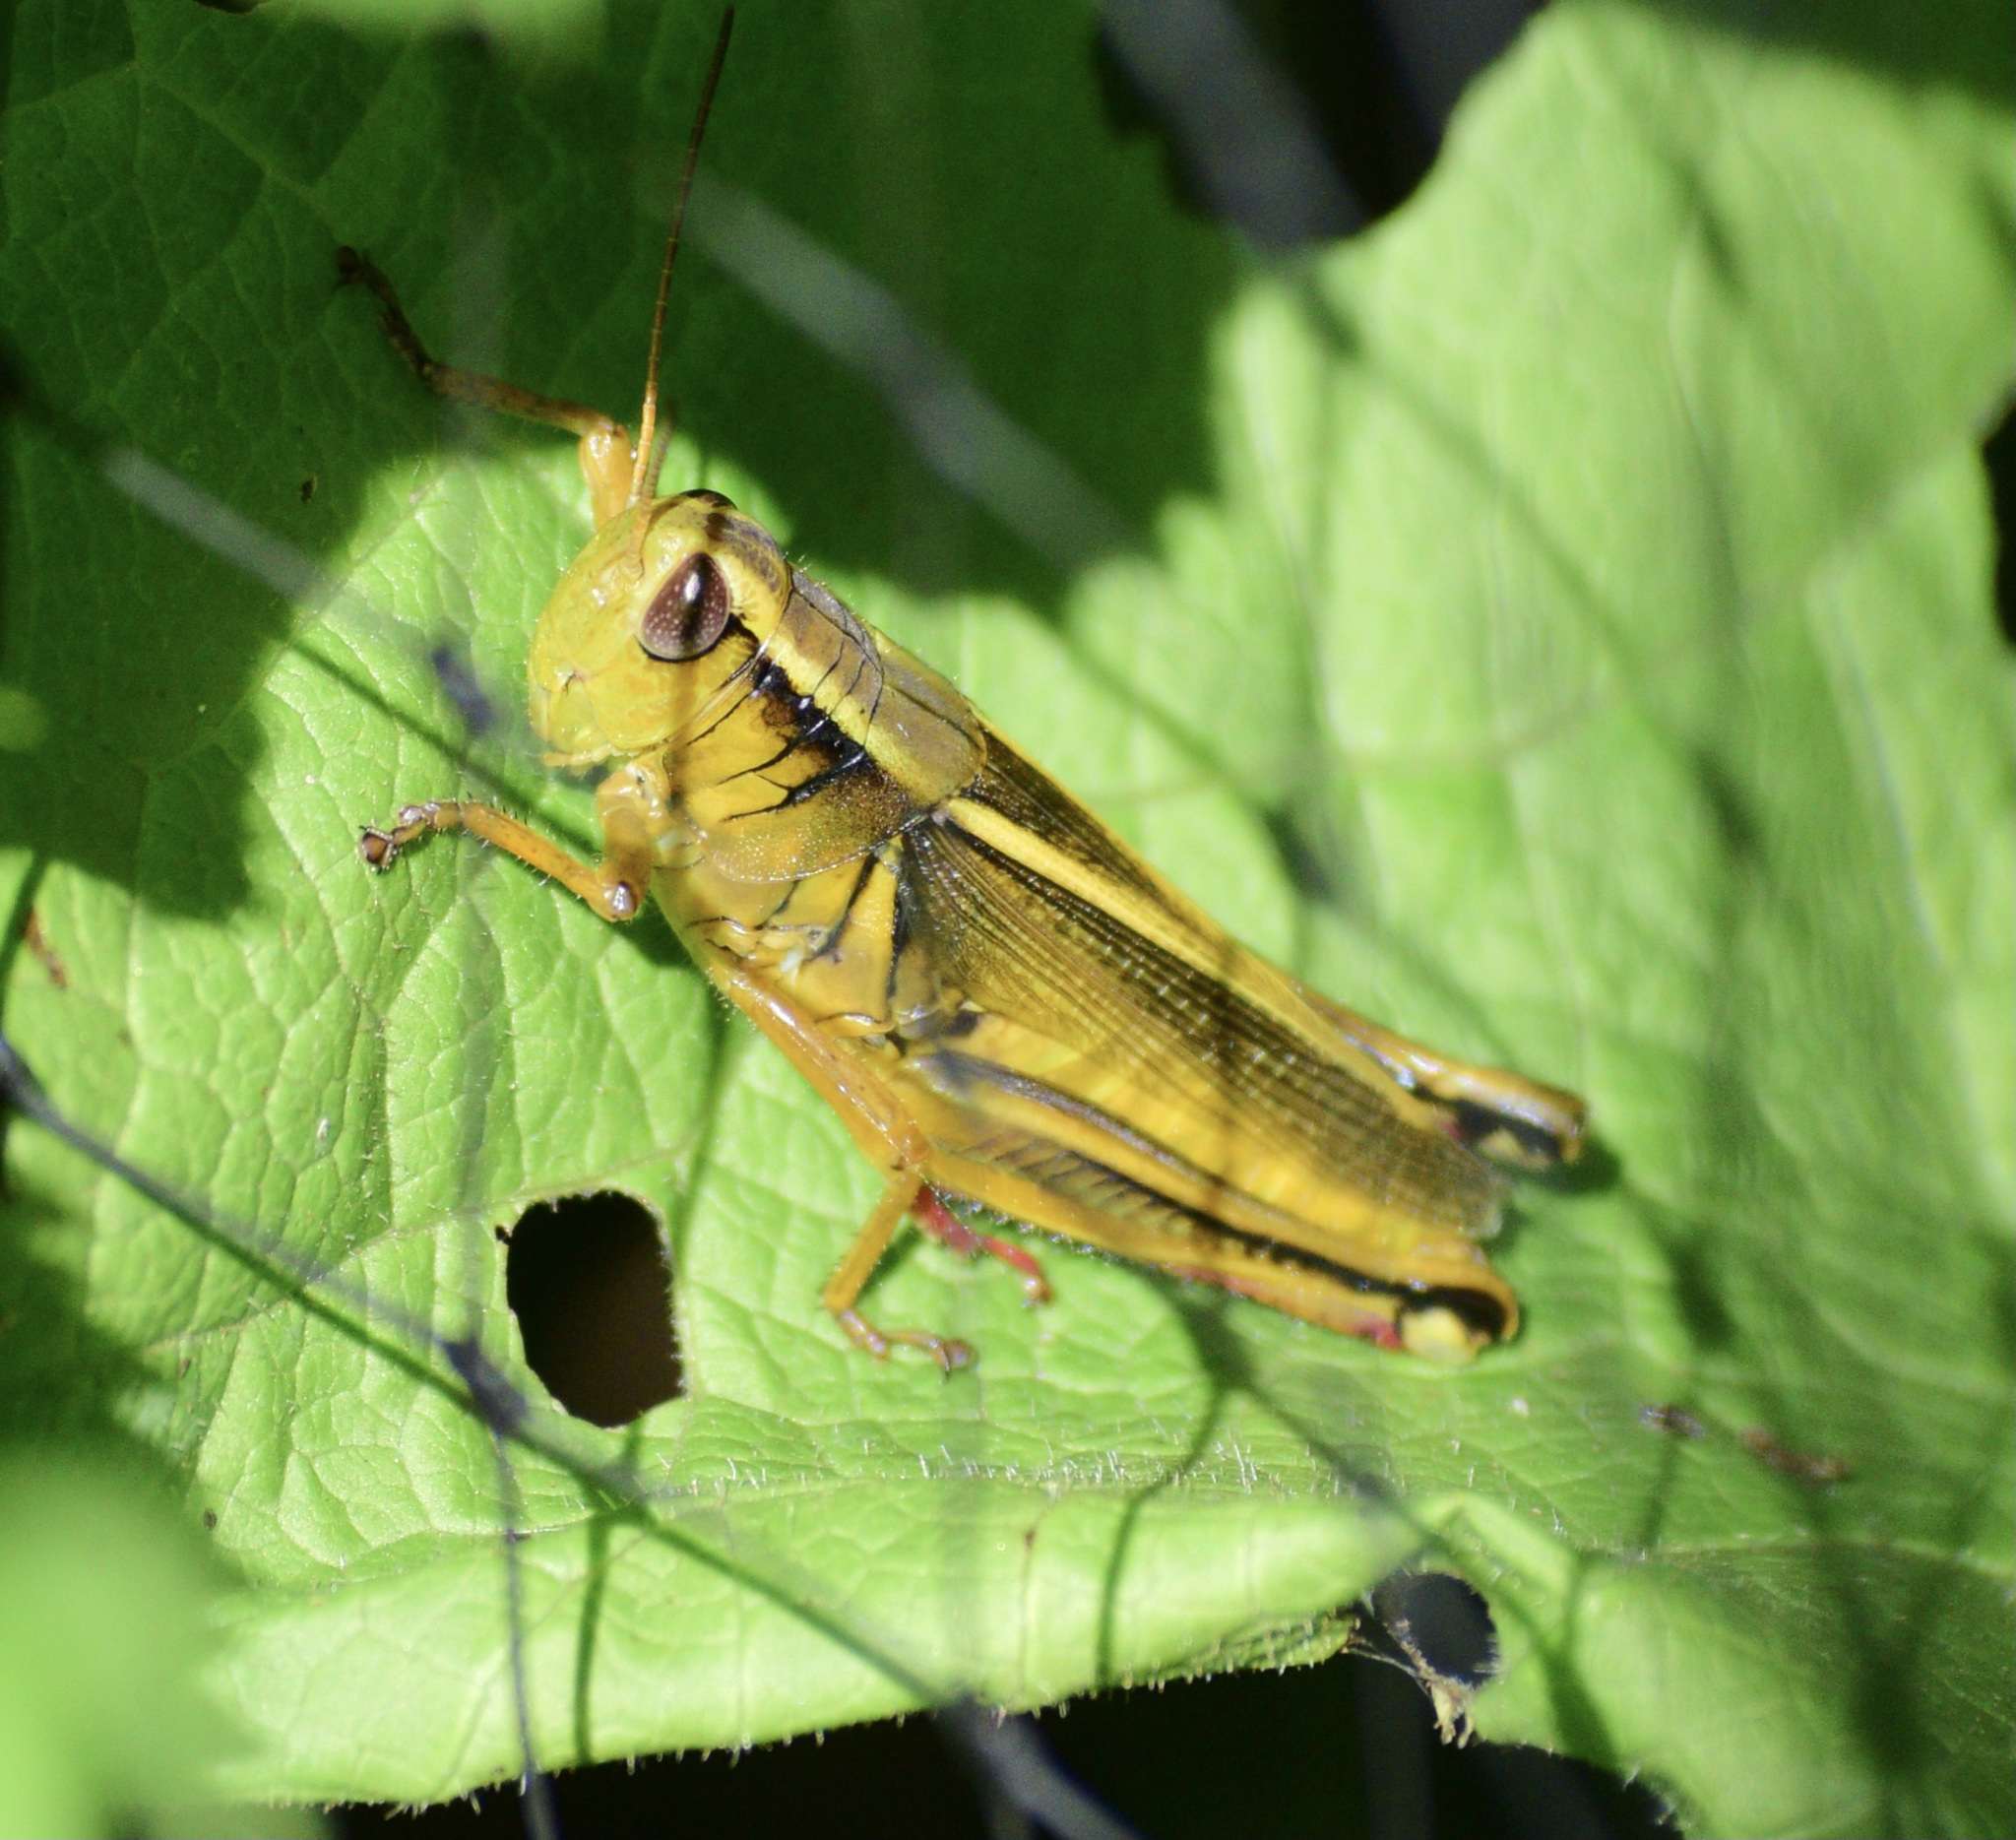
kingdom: Animalia
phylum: Arthropoda
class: Insecta
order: Orthoptera
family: Acrididae
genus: Melanoplus
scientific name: Melanoplus bivittatus
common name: Two-striped grasshopper
